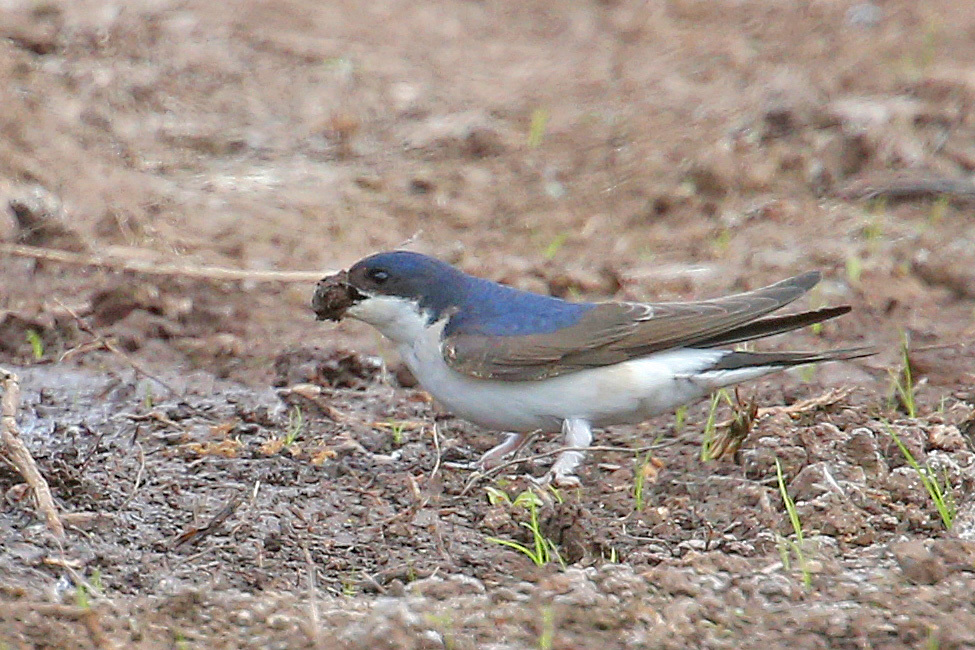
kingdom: Animalia
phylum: Chordata
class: Aves
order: Passeriformes
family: Hirundinidae
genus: Delichon
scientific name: Delichon urbicum
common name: Common house martin
